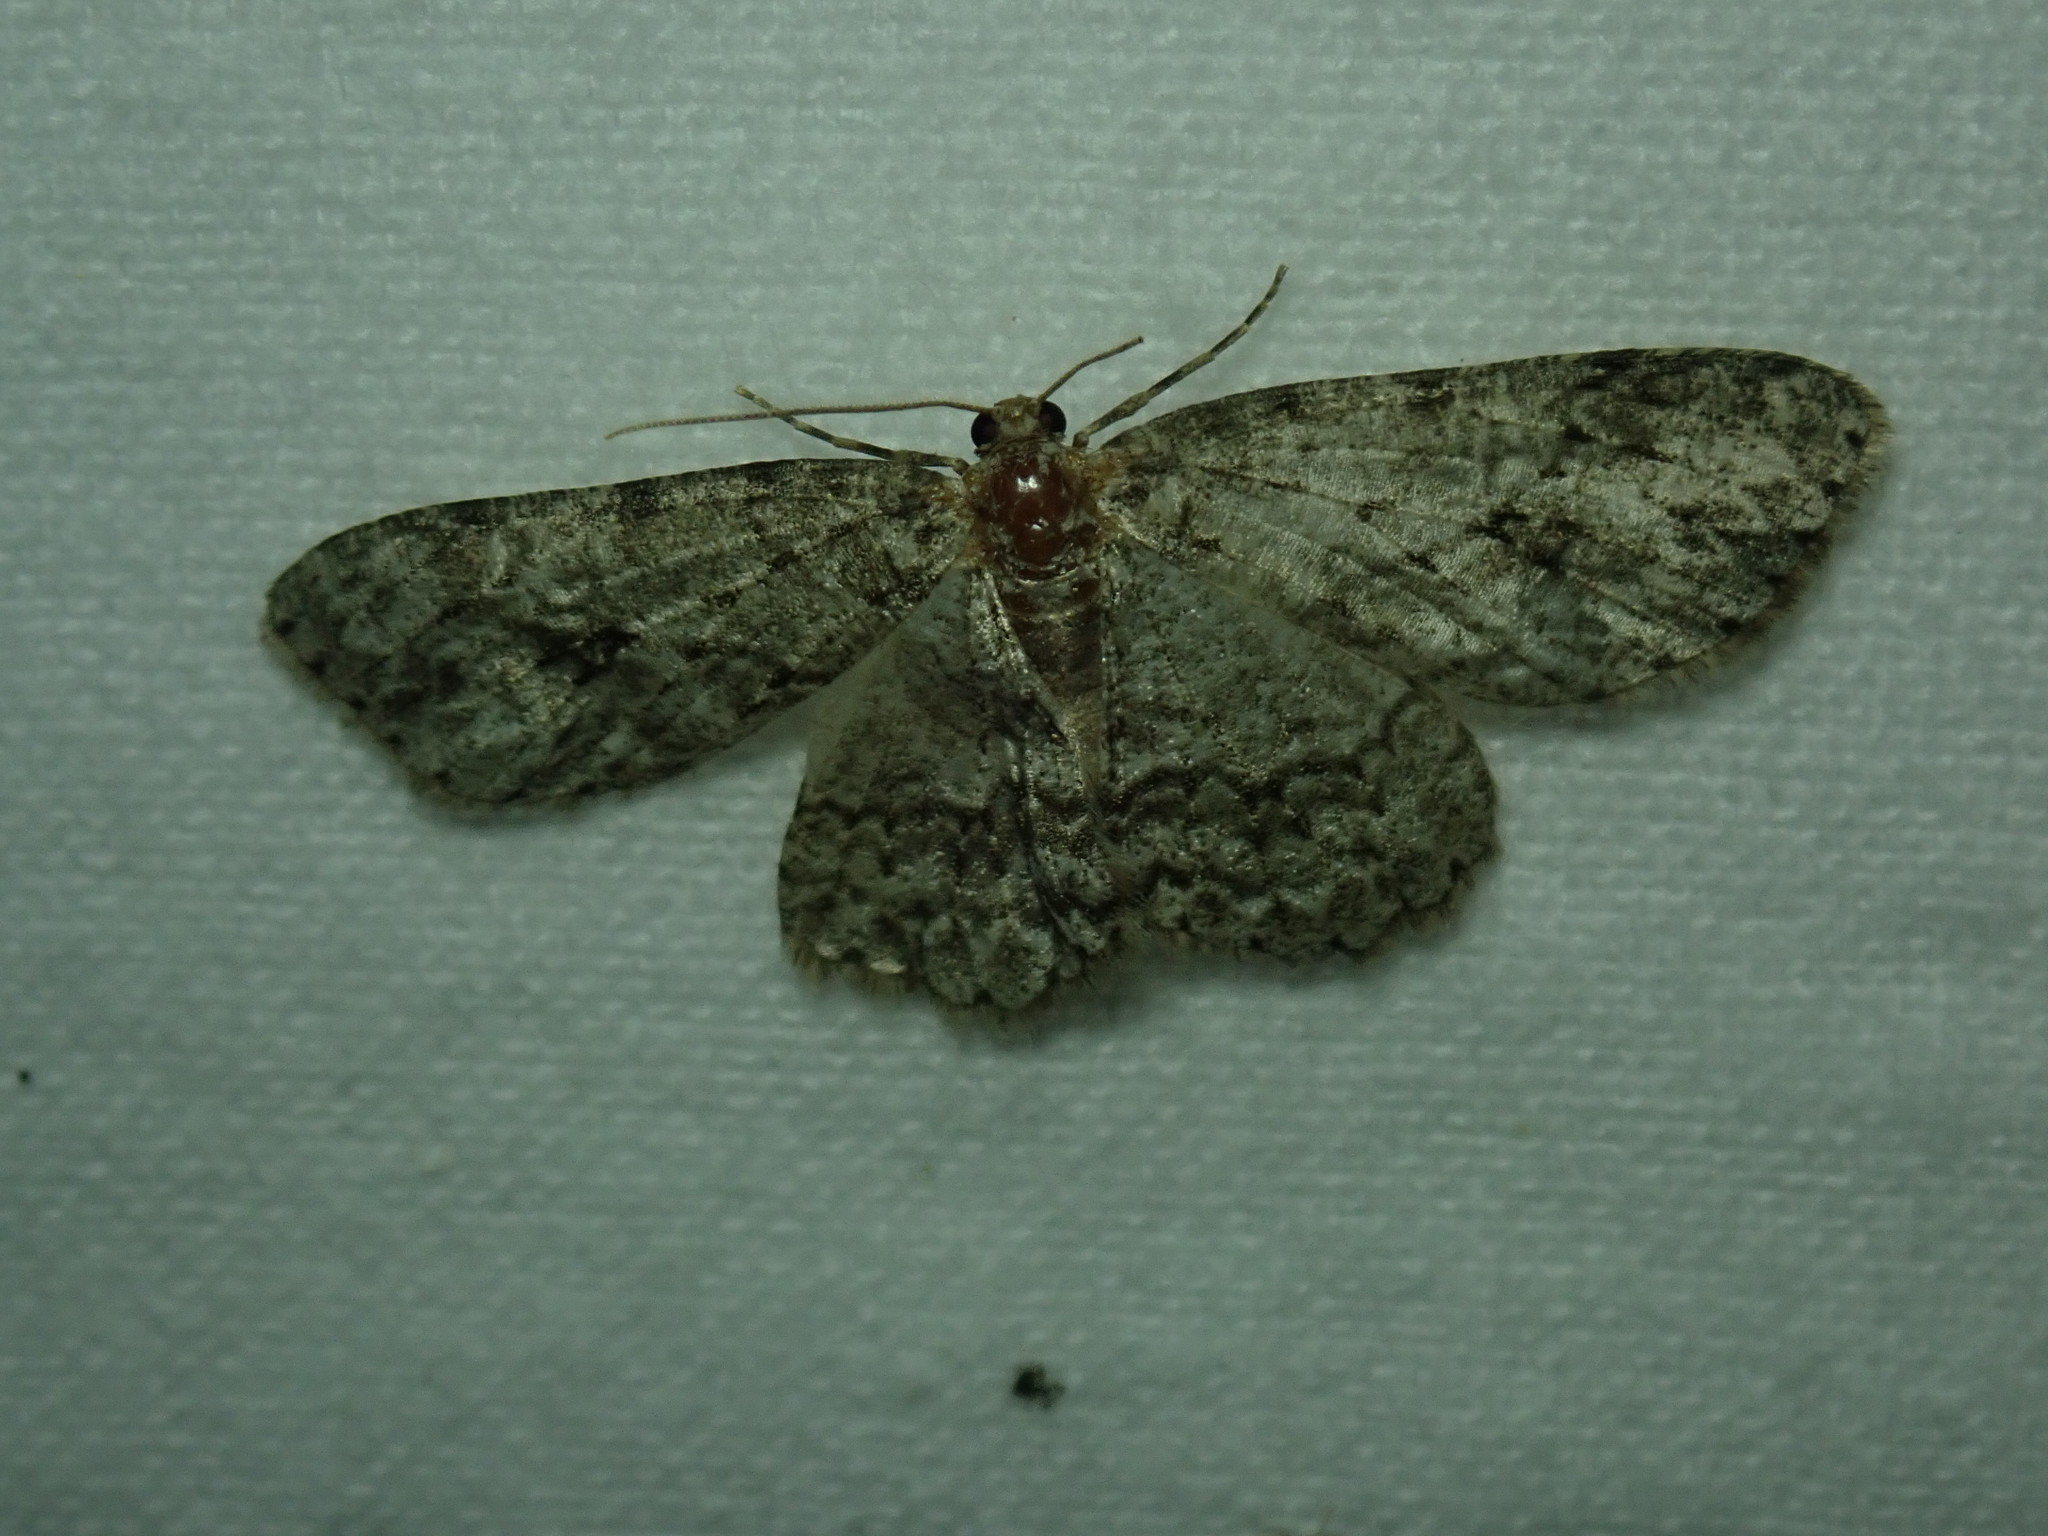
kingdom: Animalia
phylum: Arthropoda
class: Insecta
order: Lepidoptera
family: Geometridae
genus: Ectropis
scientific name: Ectropis crepuscularia
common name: Engrailed
